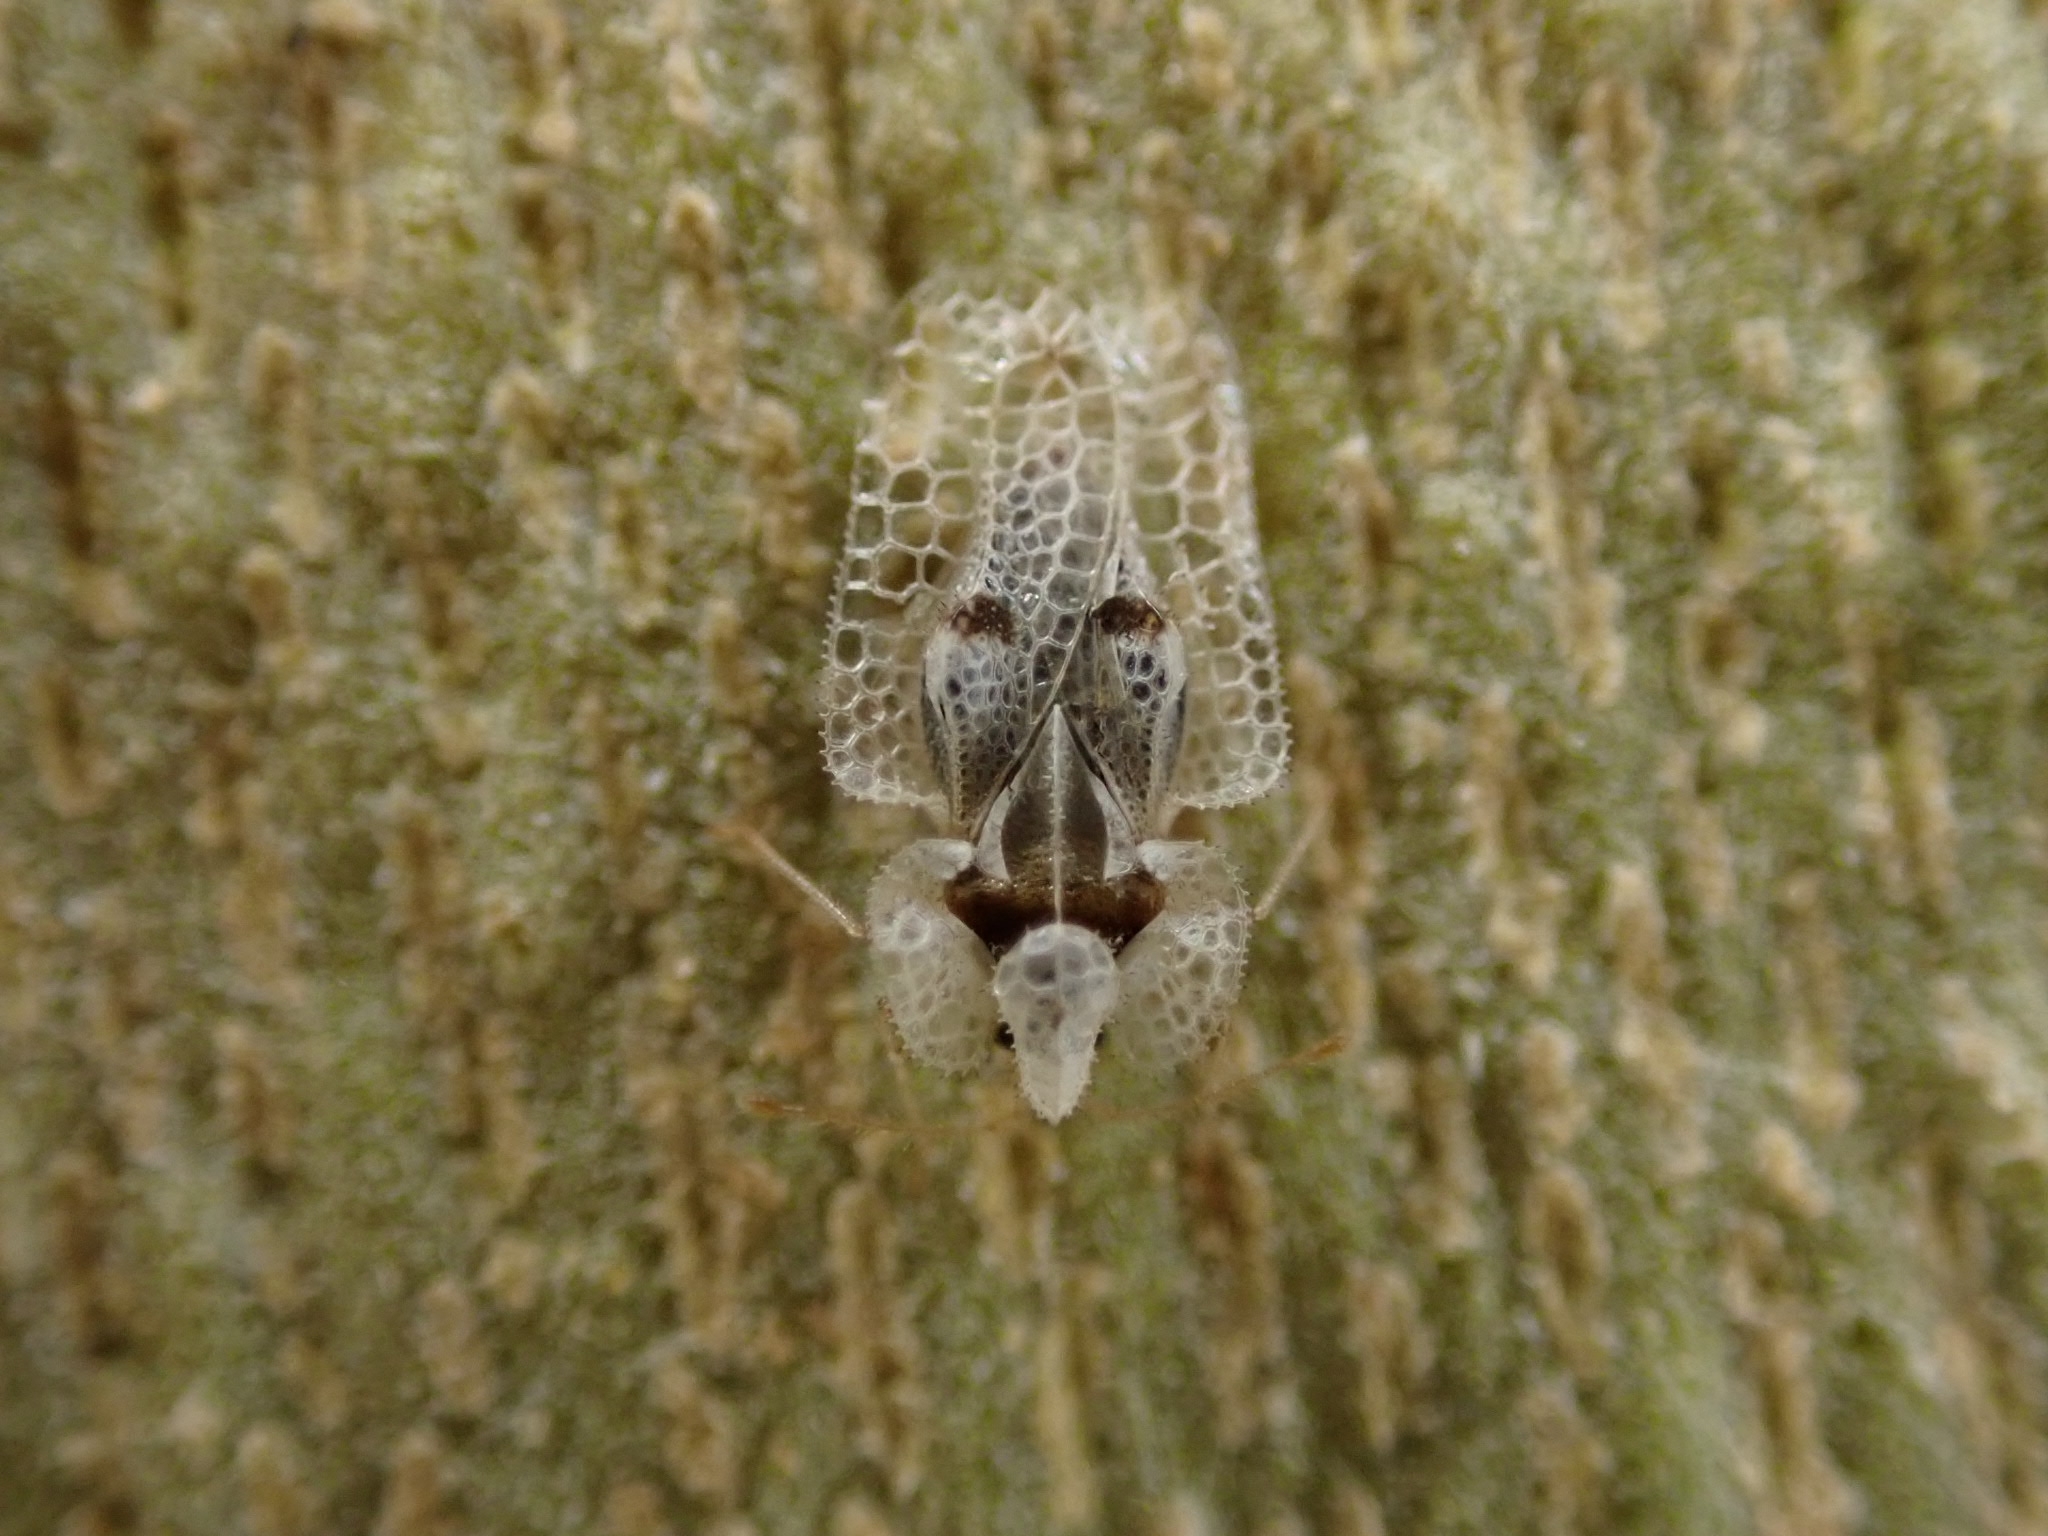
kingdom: Animalia
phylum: Arthropoda
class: Insecta
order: Hemiptera
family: Tingidae
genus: Corythucha
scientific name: Corythucha ciliata
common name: Sycamore lace bug
